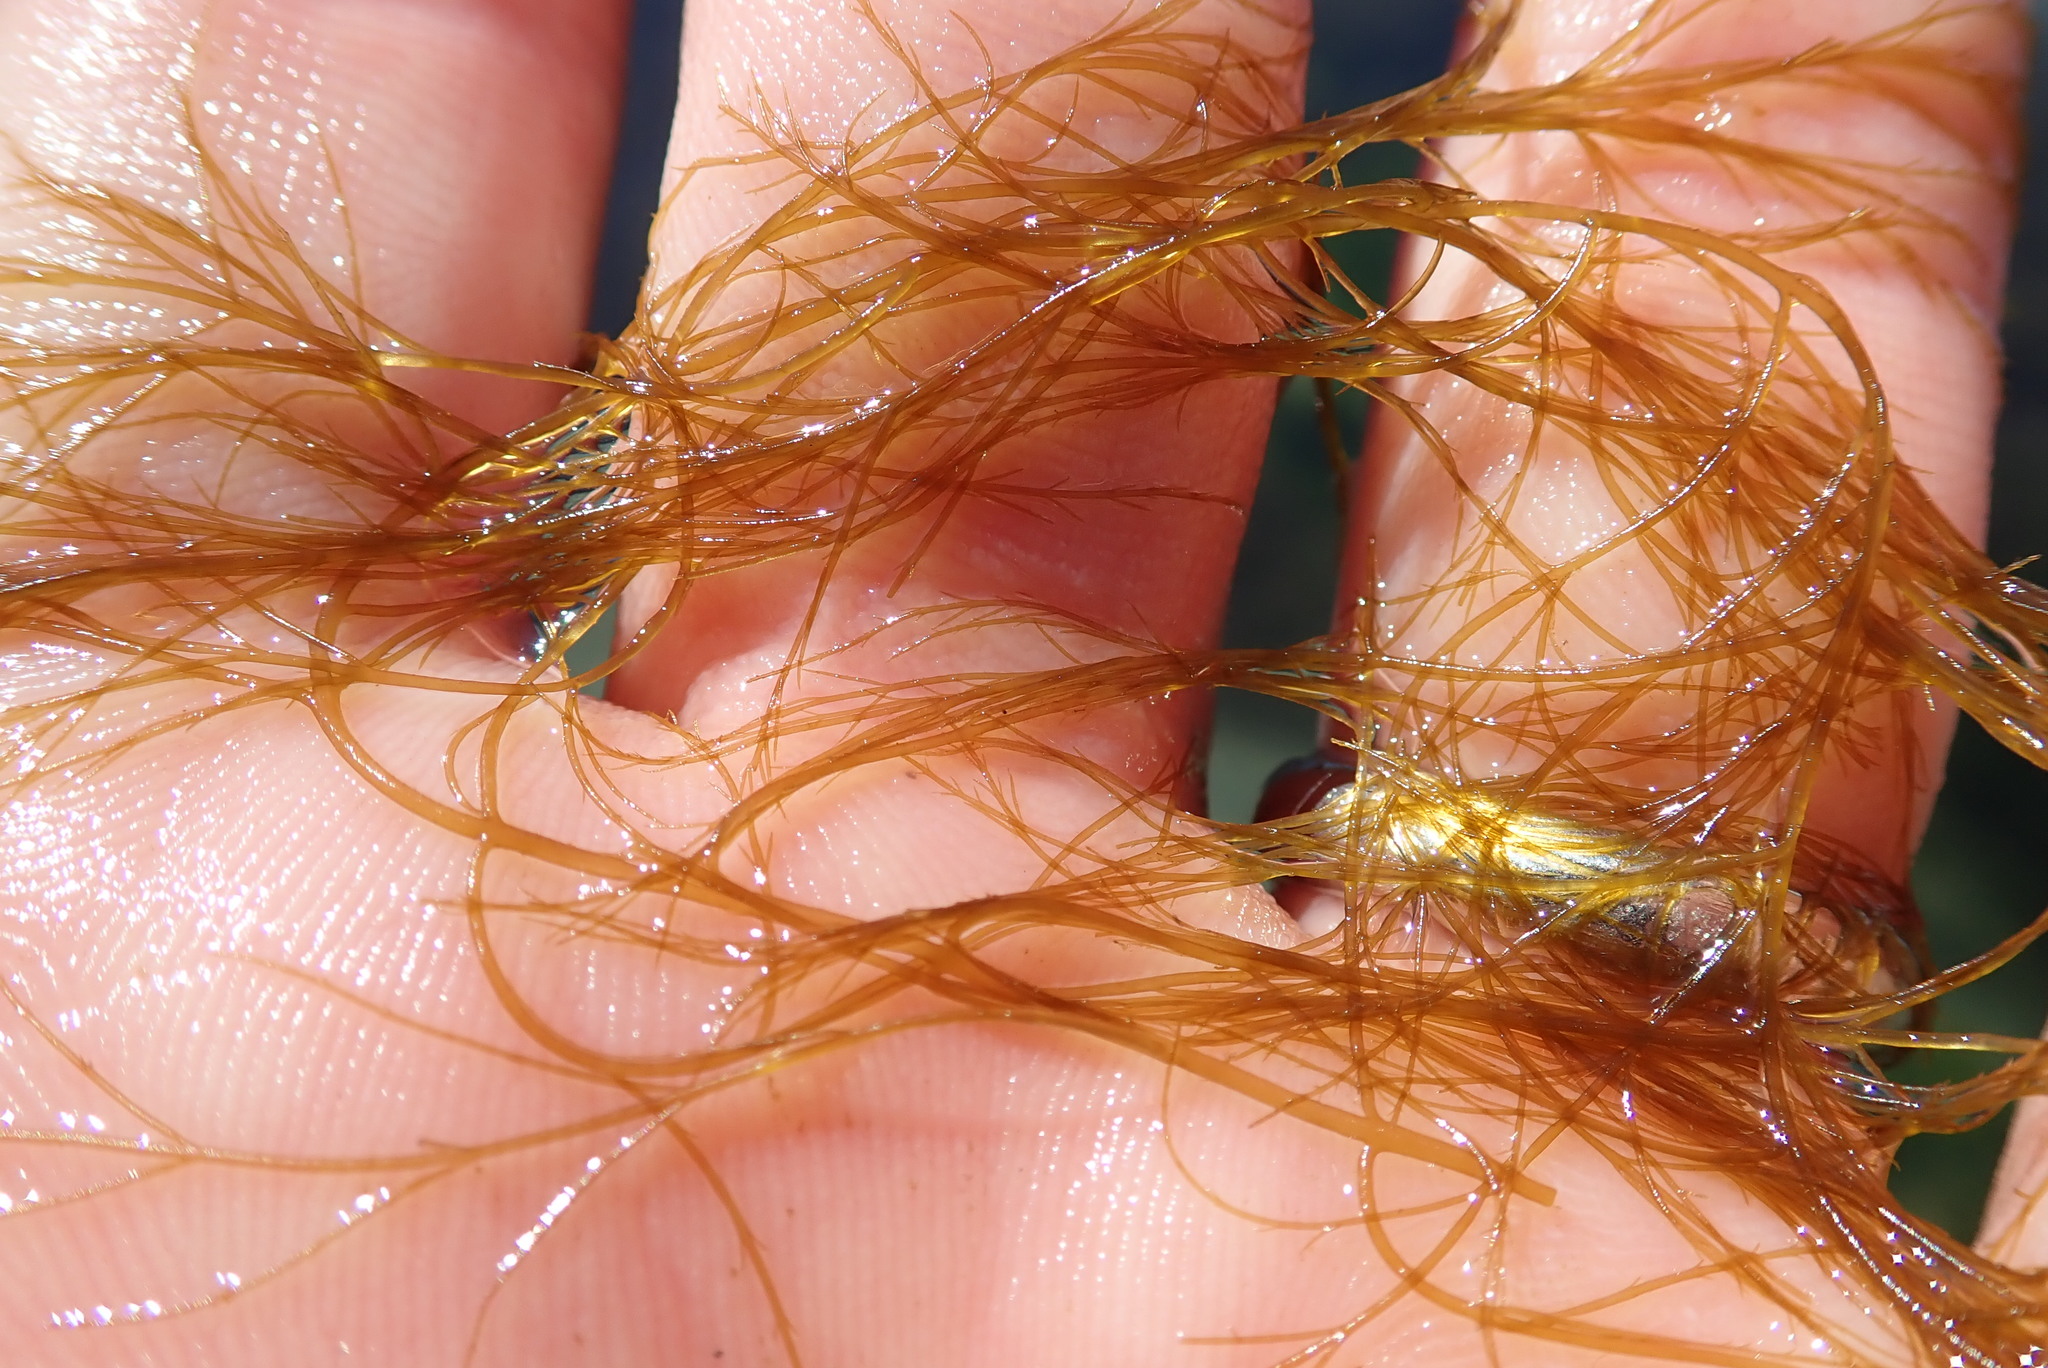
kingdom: Chromista
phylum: Ochrophyta
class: Phaeophyceae
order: Desmarestiales
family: Desmarestiaceae
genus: Desmarestia
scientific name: Desmarestia viridis
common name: Stringy acid kelp
